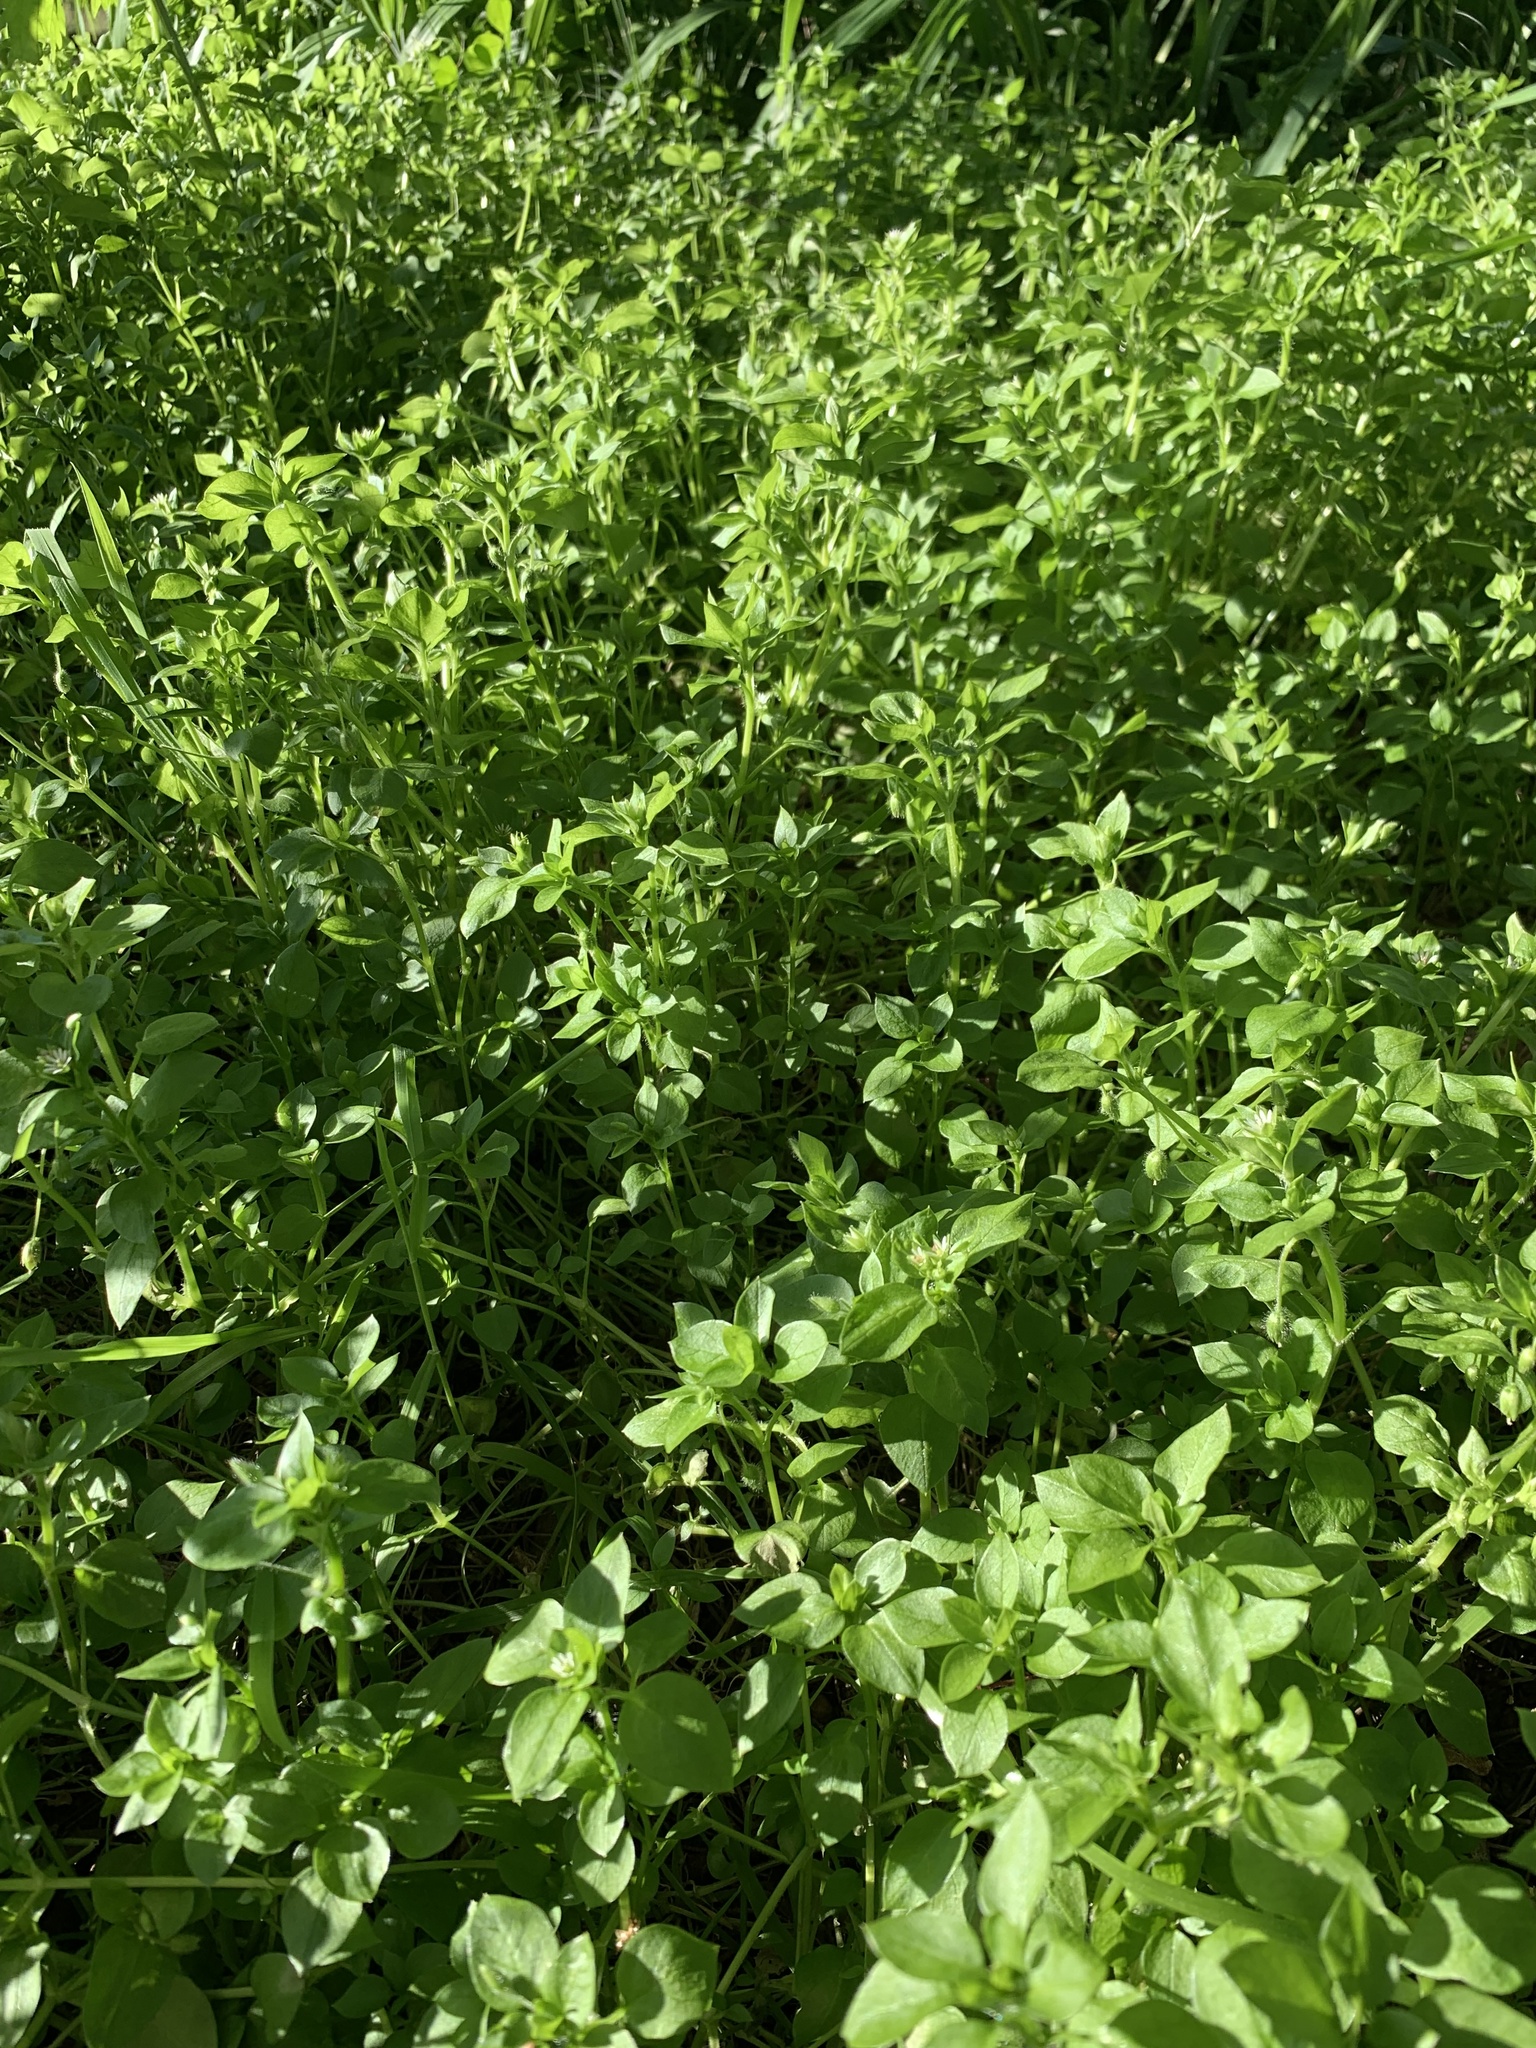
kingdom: Plantae
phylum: Tracheophyta
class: Magnoliopsida
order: Caryophyllales
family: Caryophyllaceae
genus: Stellaria
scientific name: Stellaria media
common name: Common chickweed
